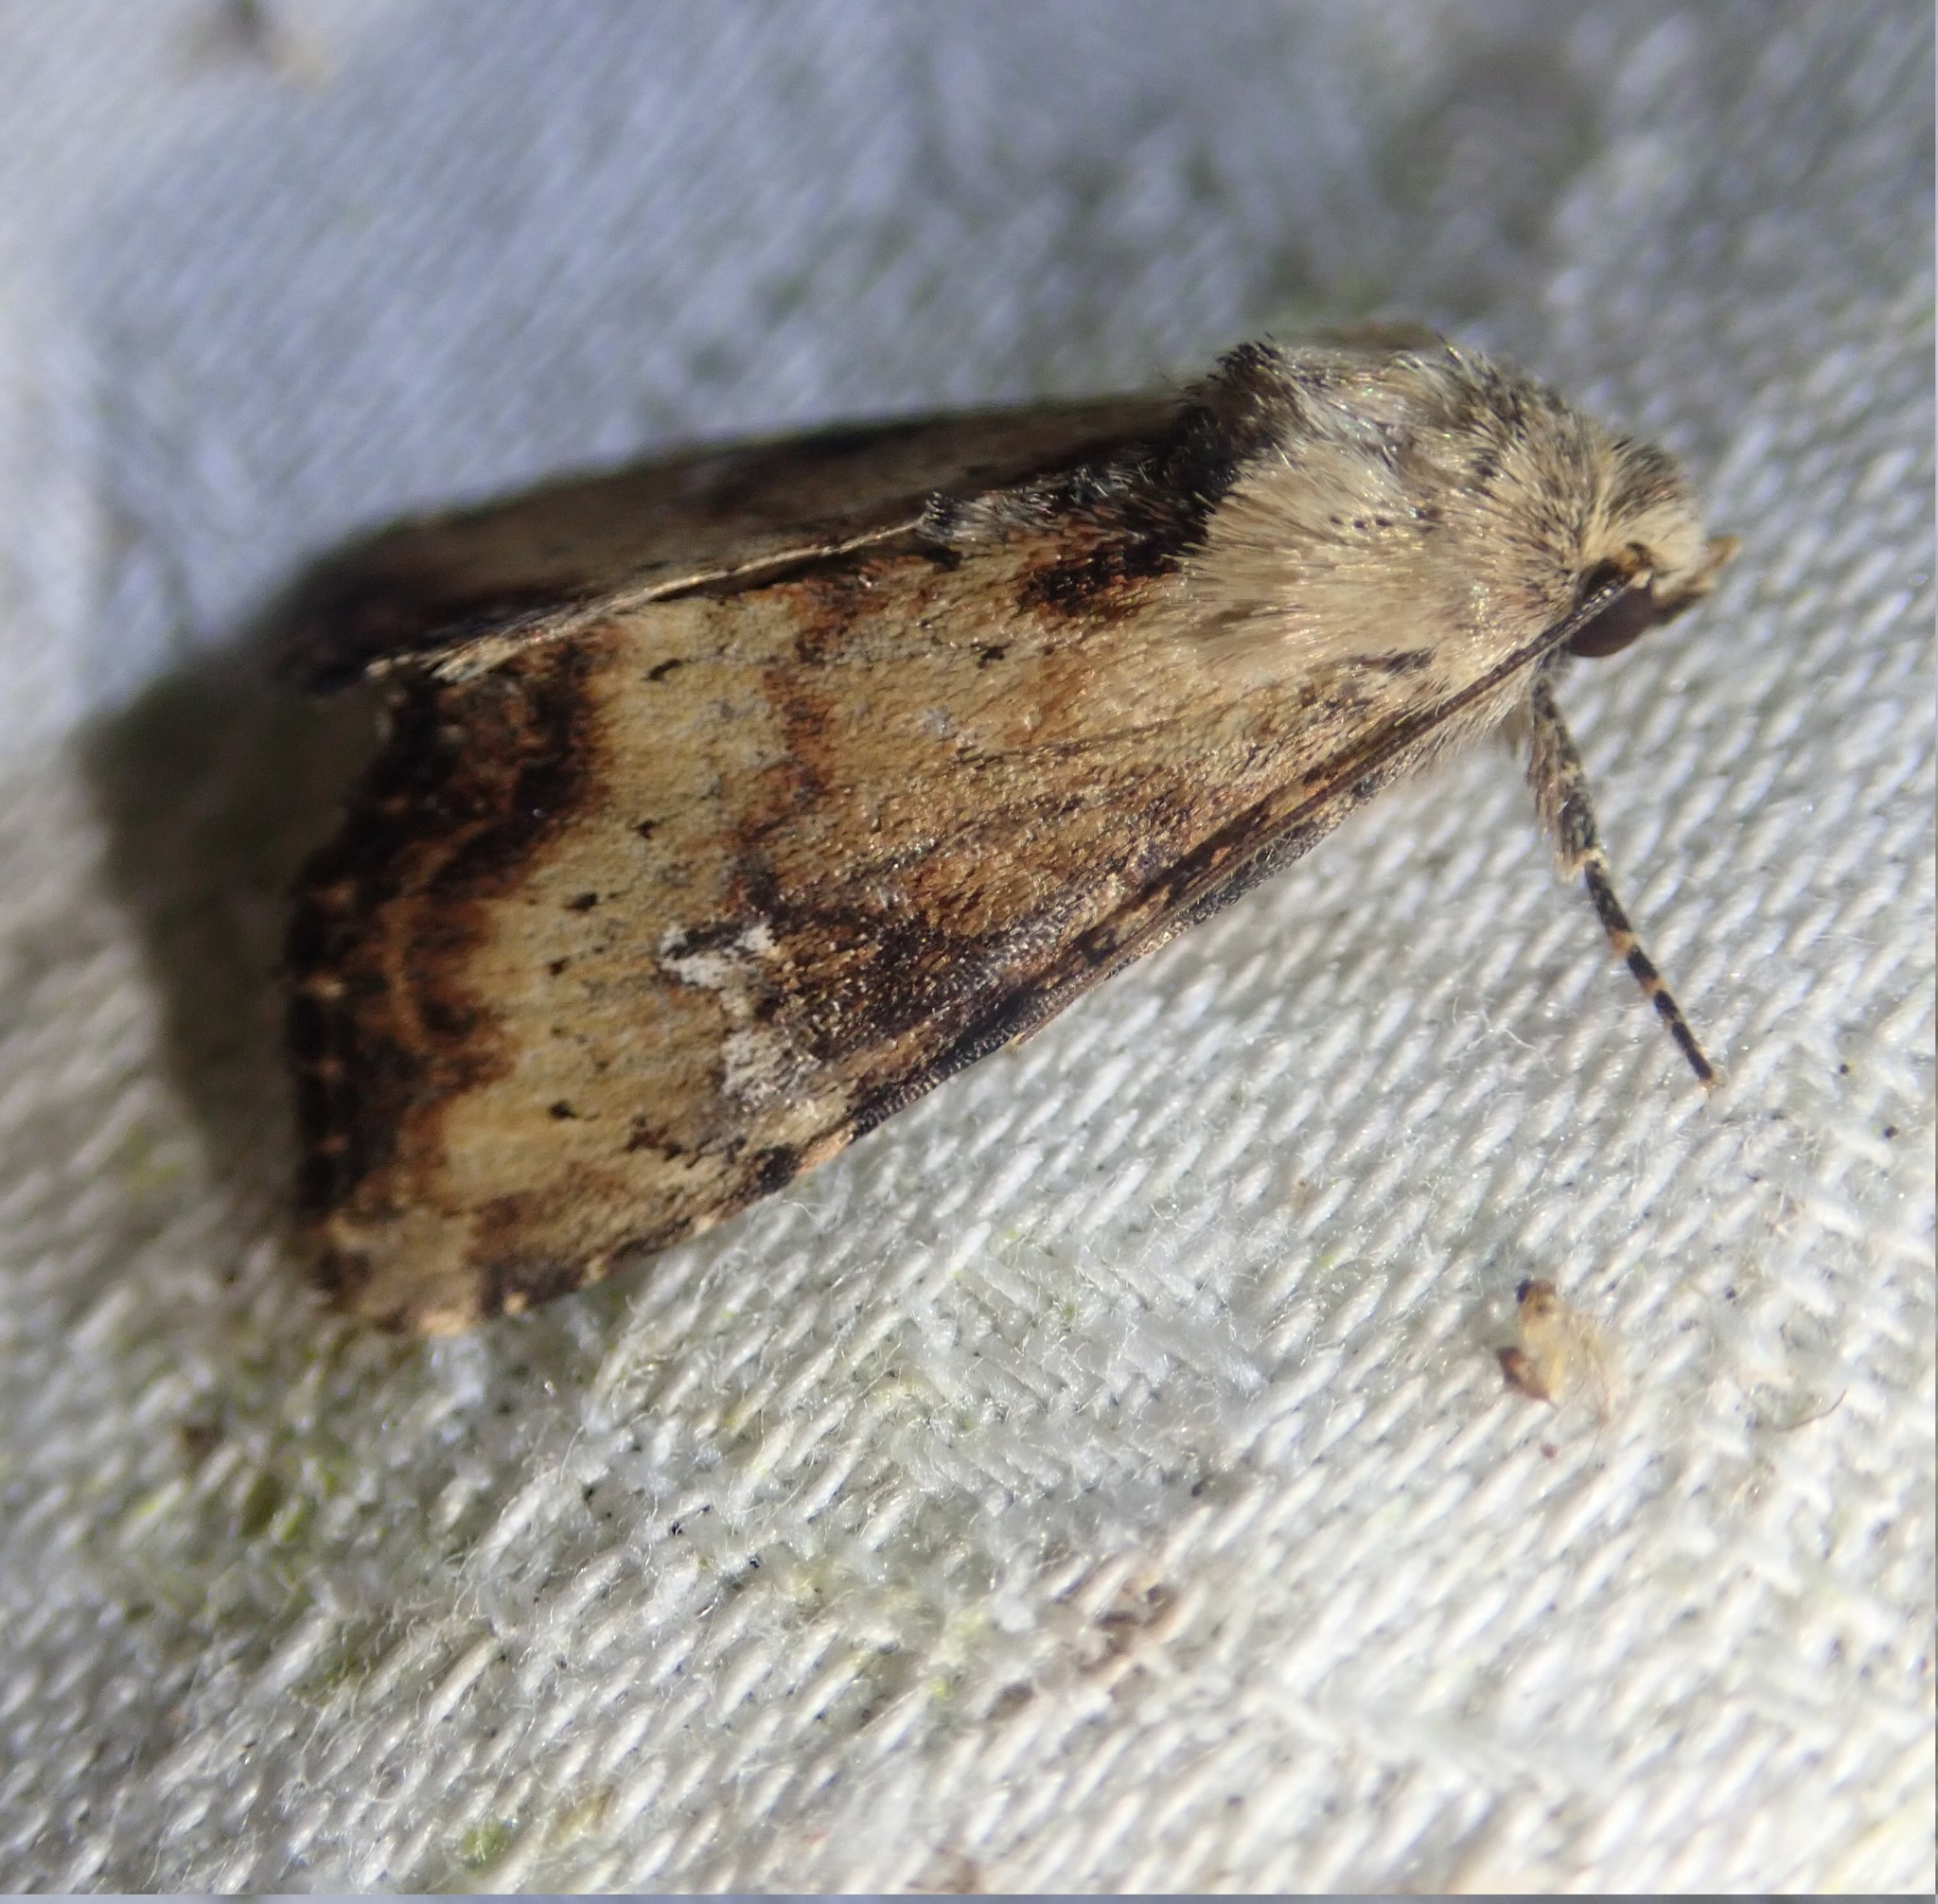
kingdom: Animalia
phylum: Arthropoda
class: Insecta
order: Lepidoptera
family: Noctuidae
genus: Loscopia
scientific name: Loscopia scolopacina
